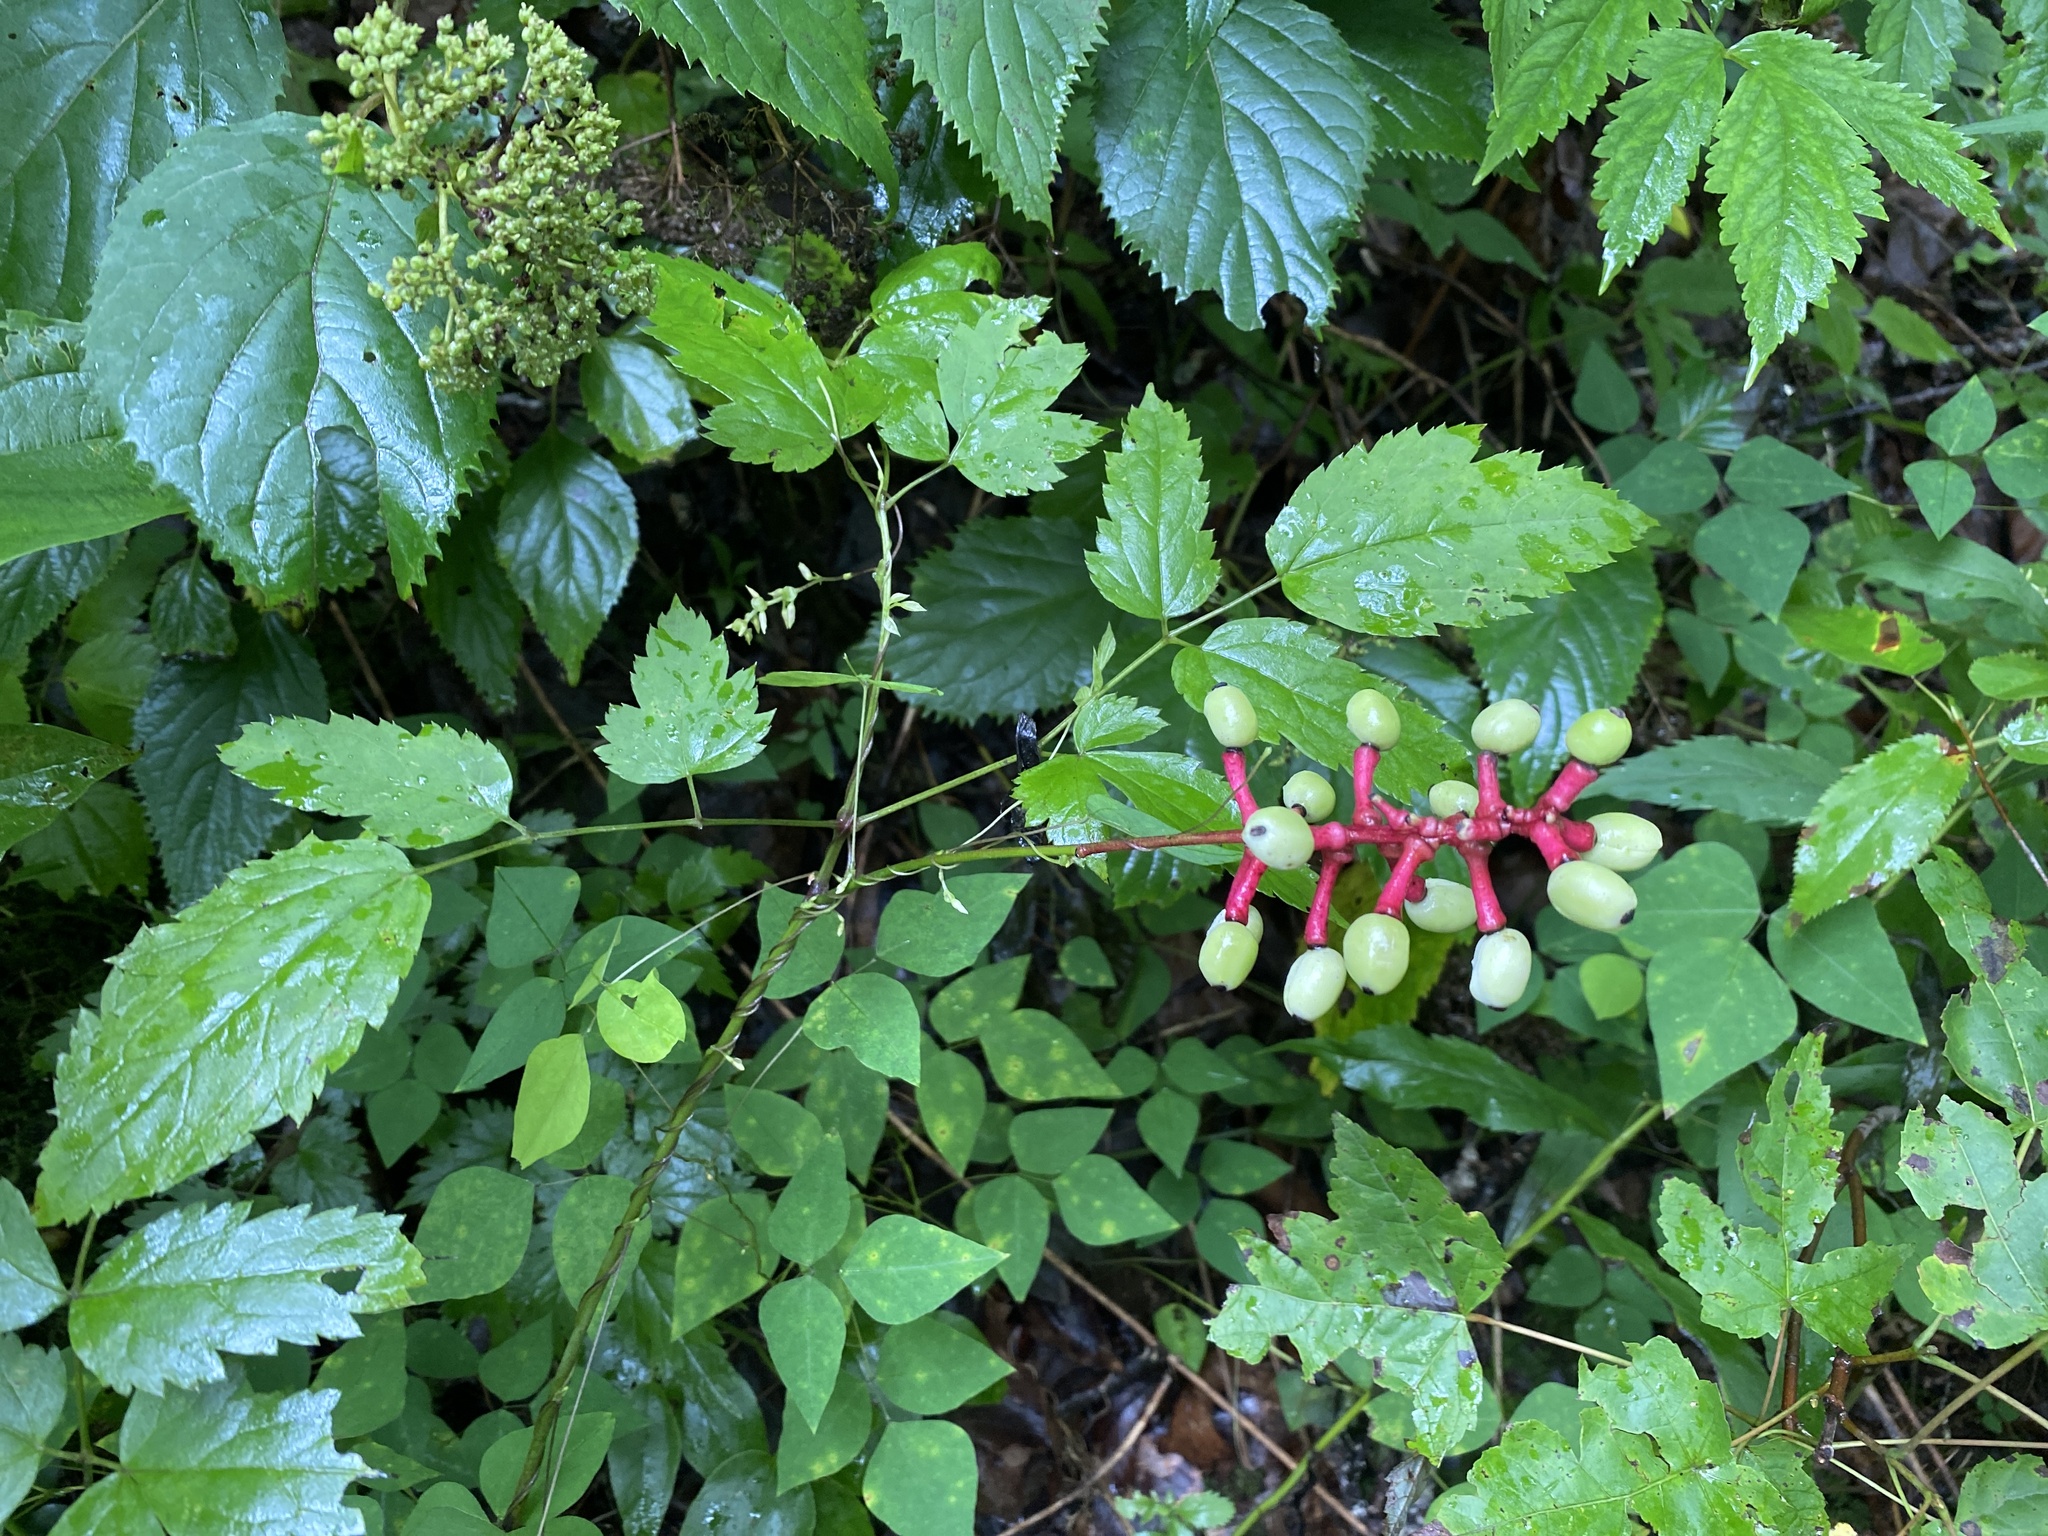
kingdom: Plantae
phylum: Tracheophyta
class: Magnoliopsida
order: Ranunculales
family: Ranunculaceae
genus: Actaea
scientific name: Actaea pachypoda
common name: Doll's-eyes
